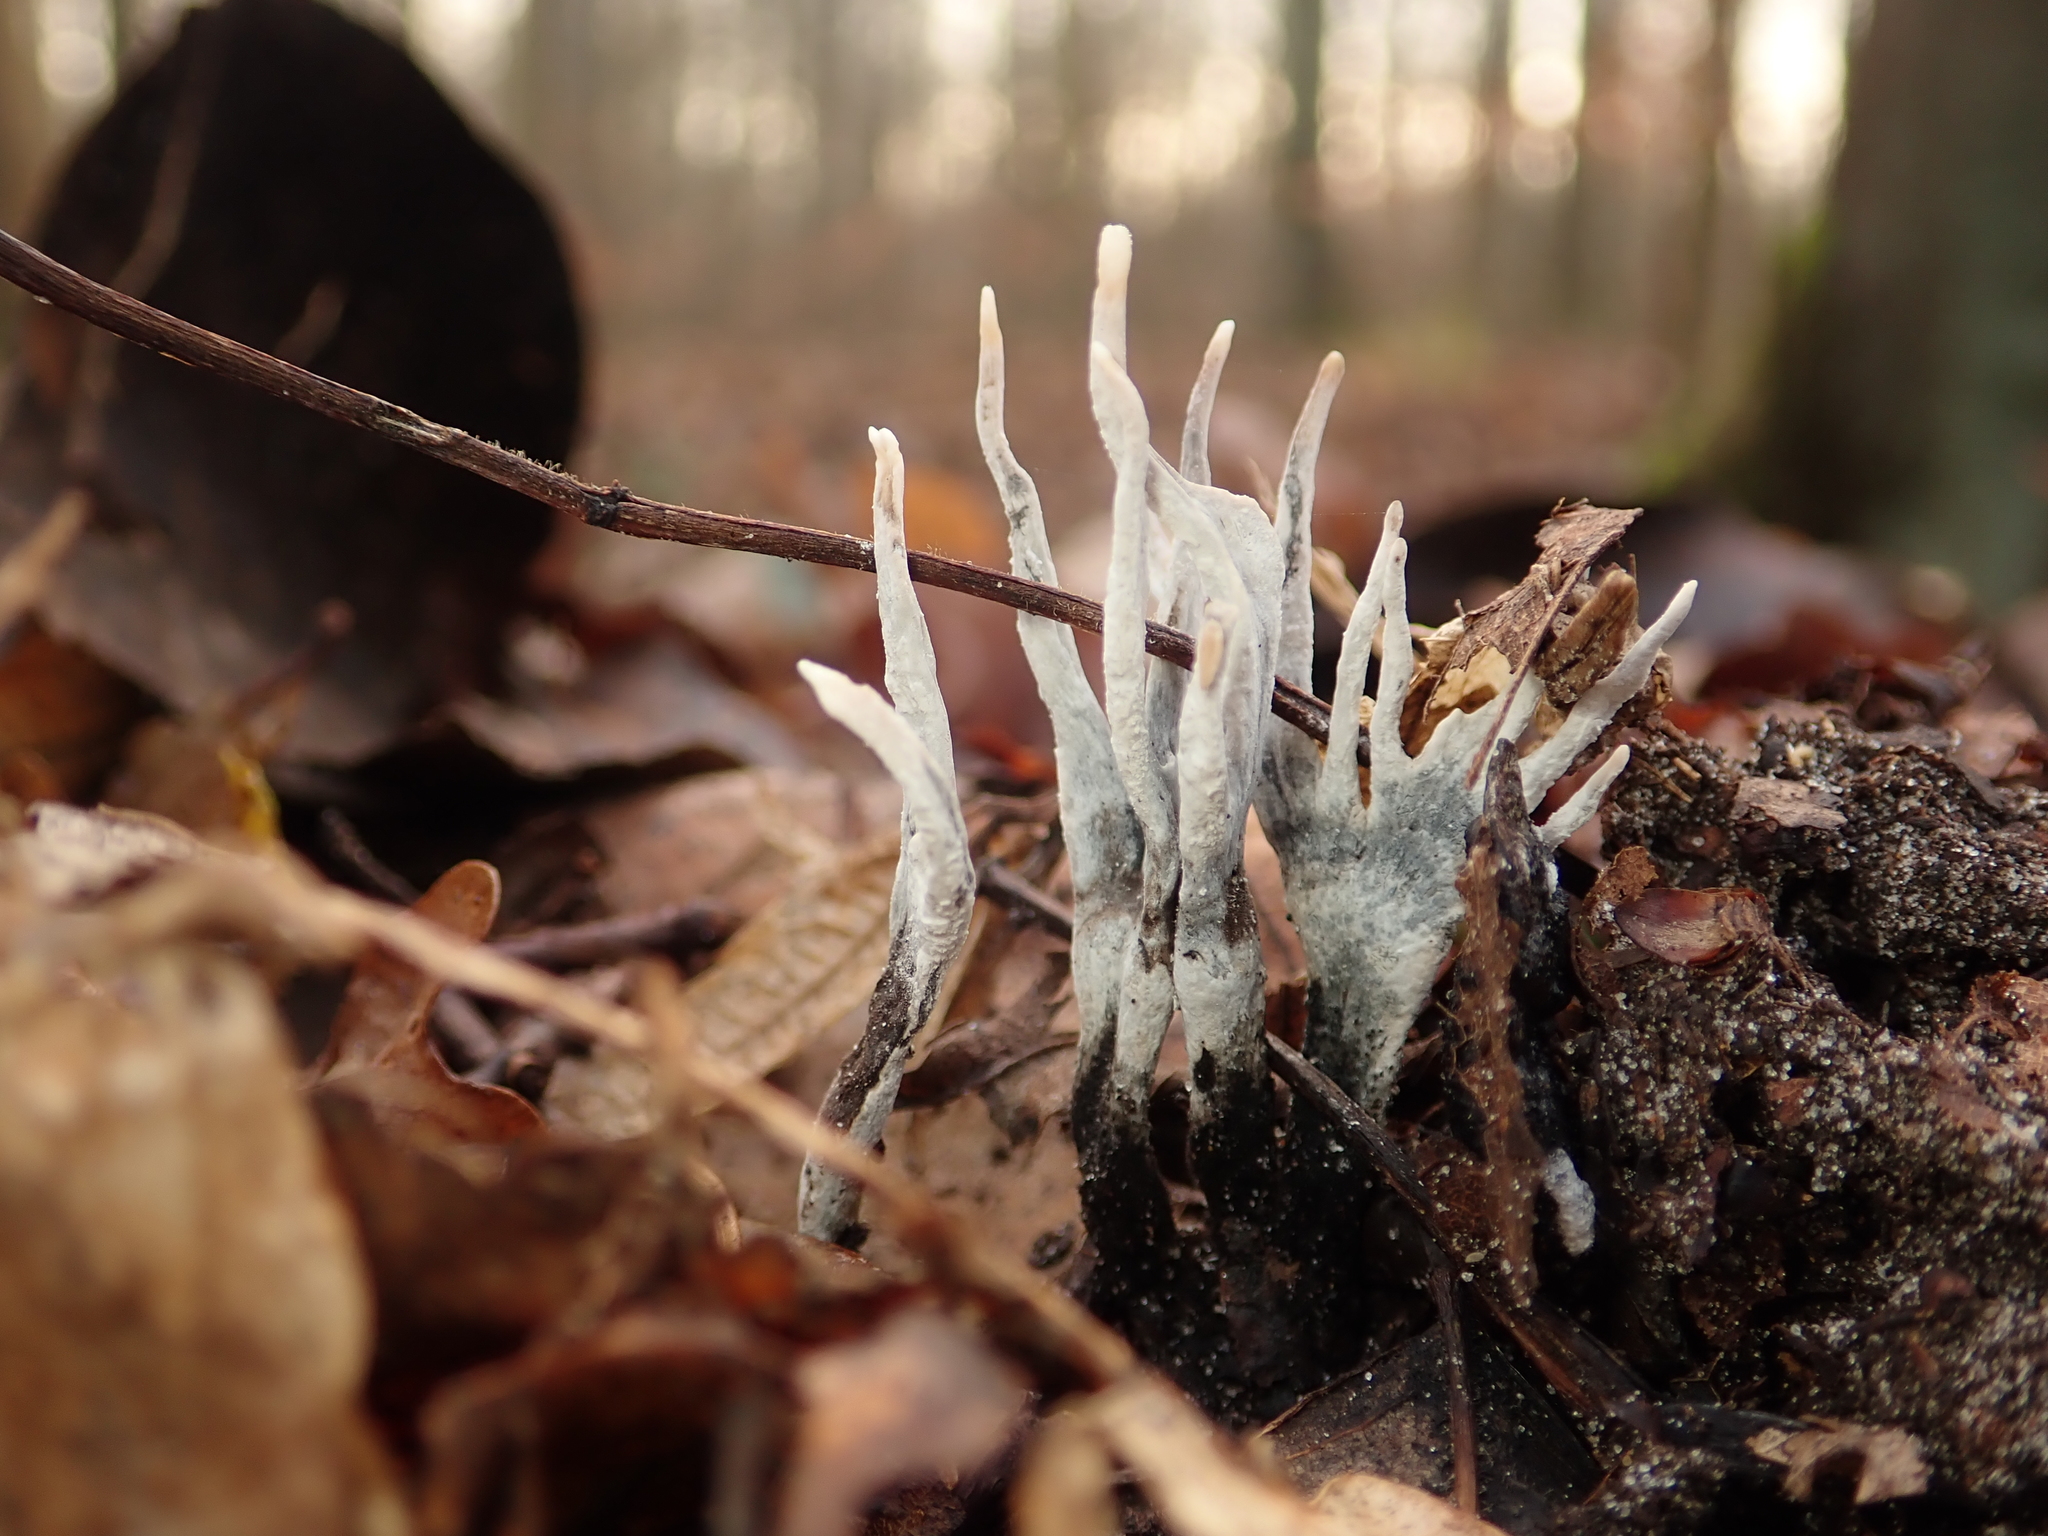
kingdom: Fungi
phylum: Ascomycota
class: Sordariomycetes
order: Xylariales
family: Xylariaceae
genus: Xylaria
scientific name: Xylaria hypoxylon
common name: Candle-snuff fungus
